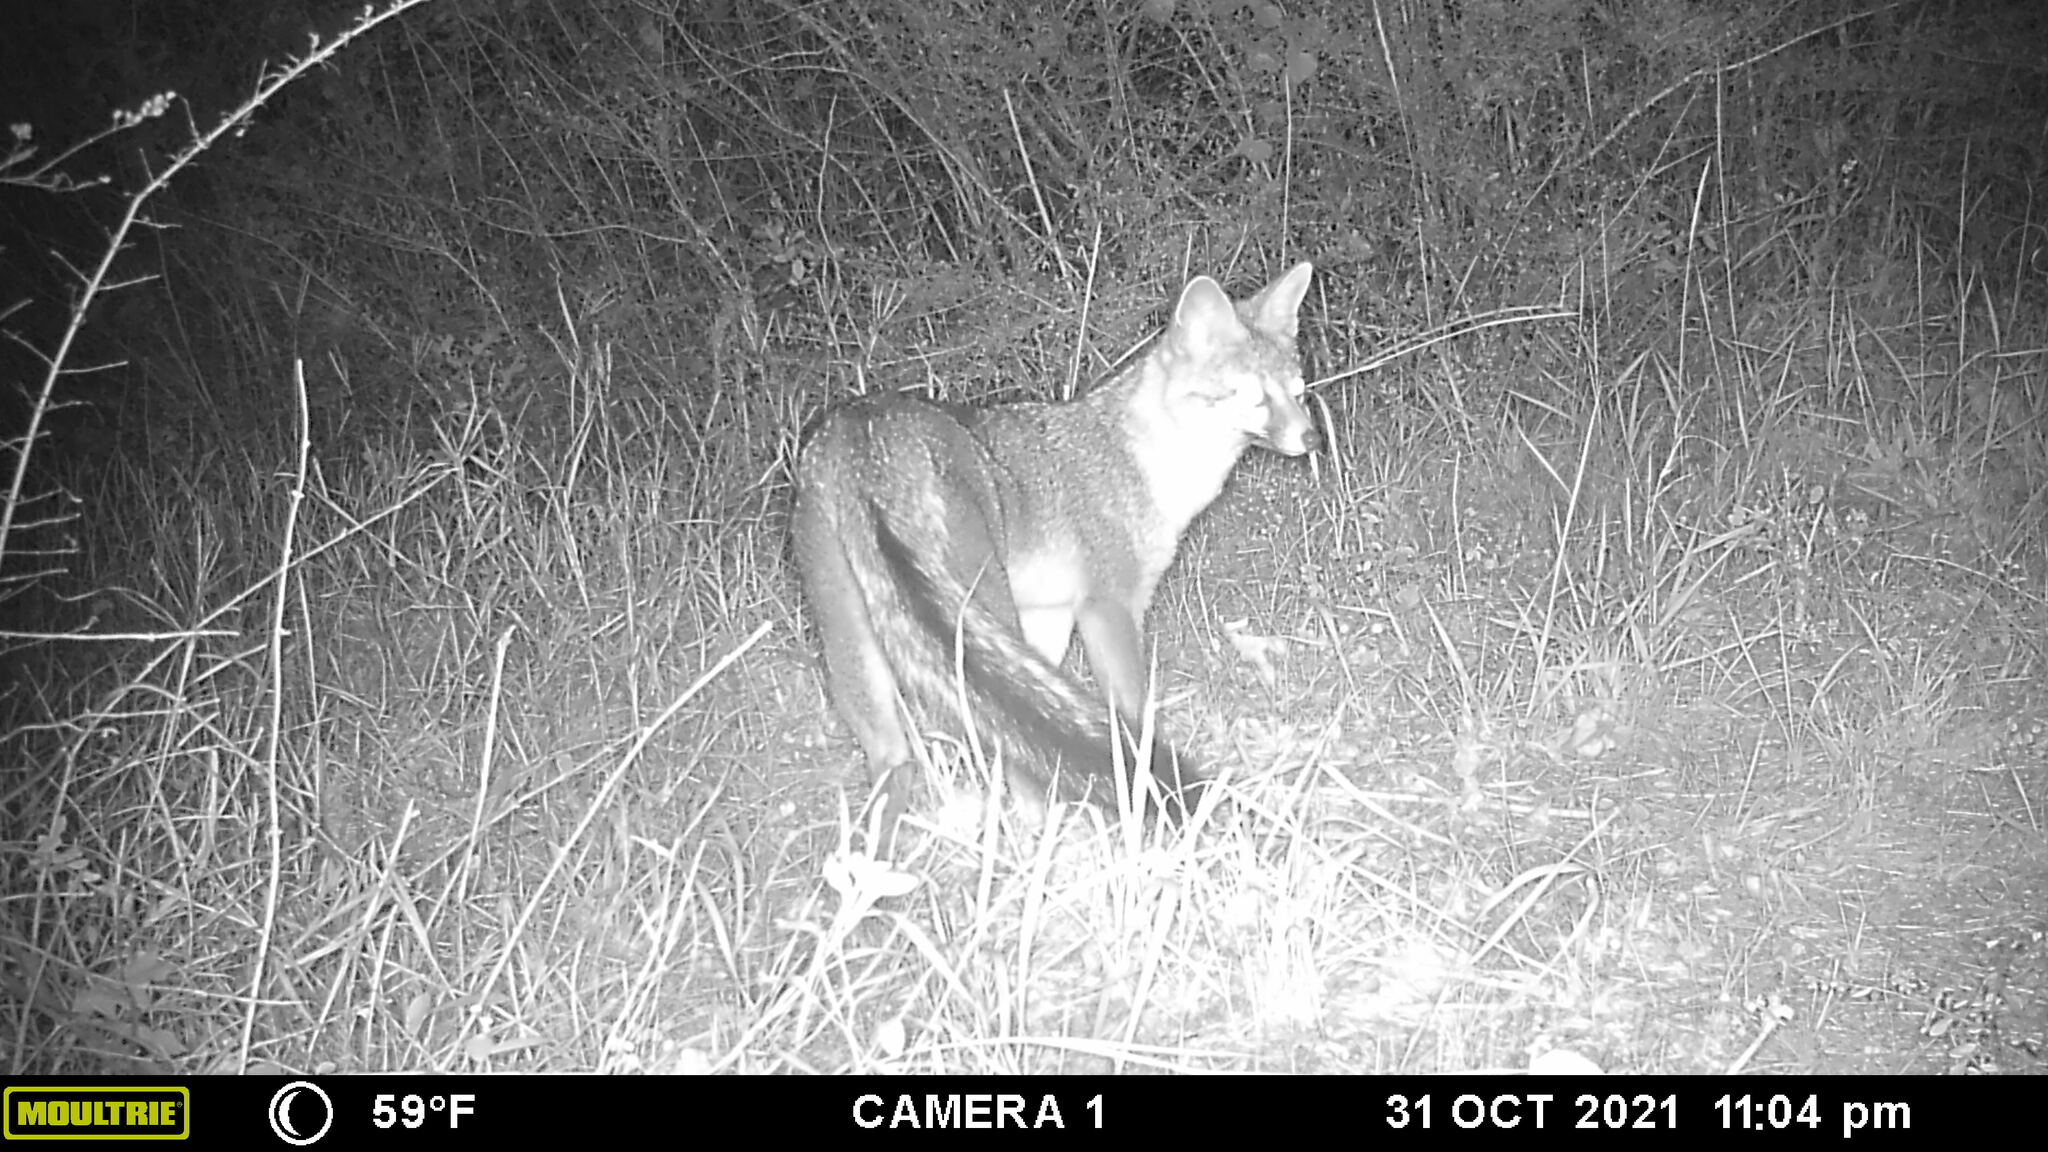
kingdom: Animalia
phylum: Chordata
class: Mammalia
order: Carnivora
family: Canidae
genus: Urocyon
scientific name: Urocyon cinereoargenteus
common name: Gray fox
